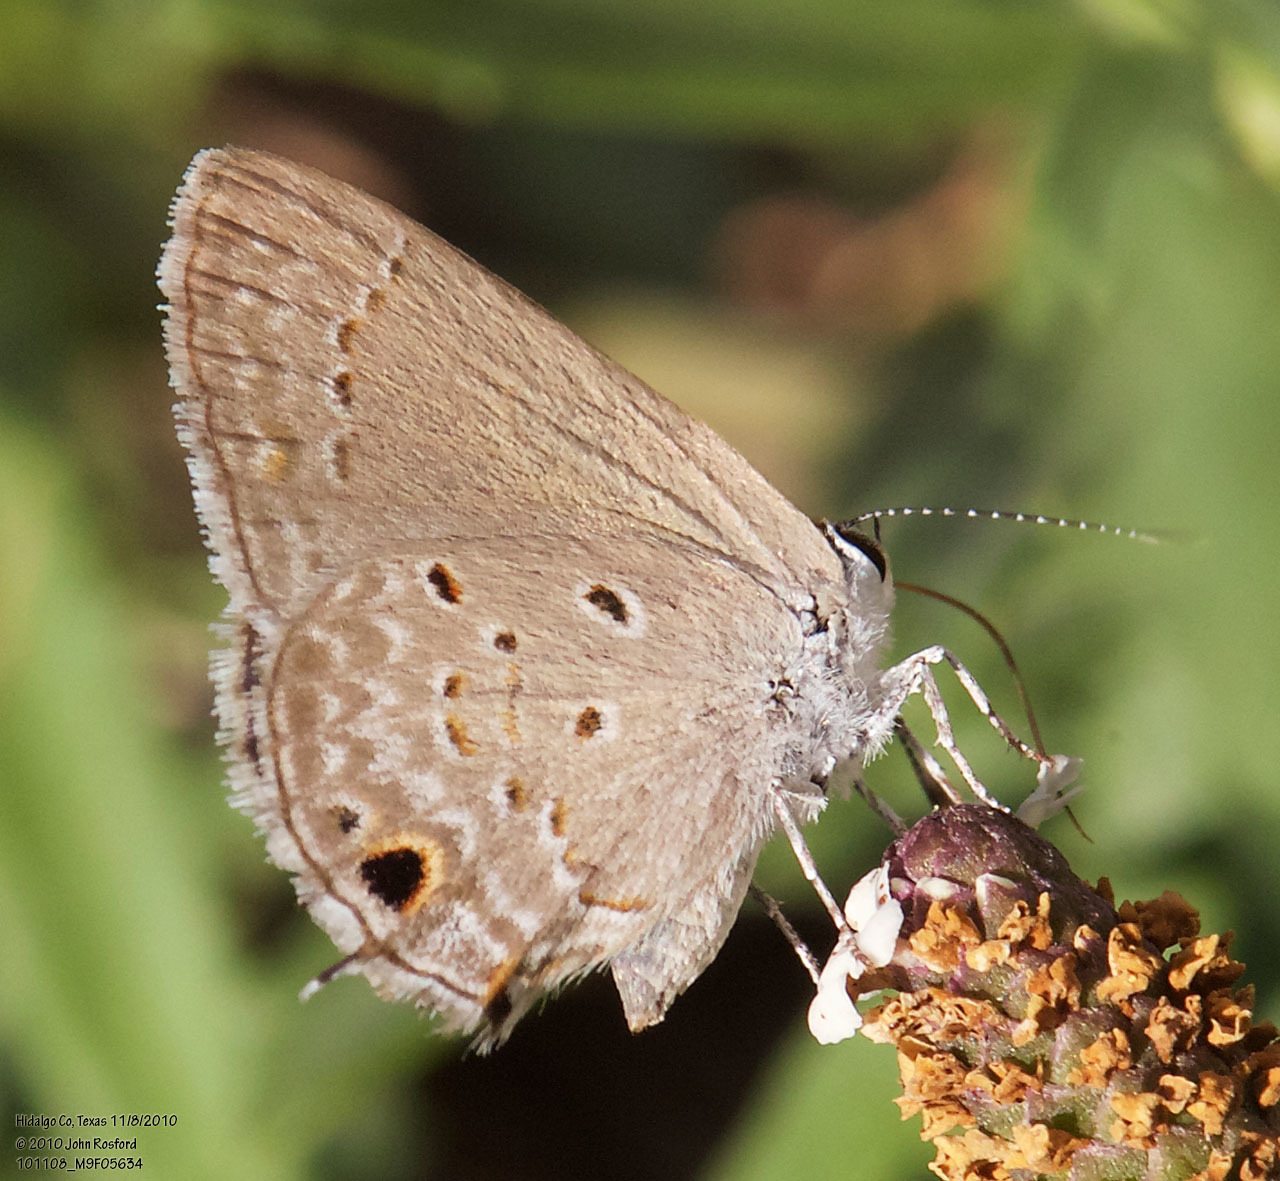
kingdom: Animalia
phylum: Arthropoda
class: Insecta
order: Lepidoptera
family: Lycaenidae
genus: Callicista
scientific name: Callicista columella
